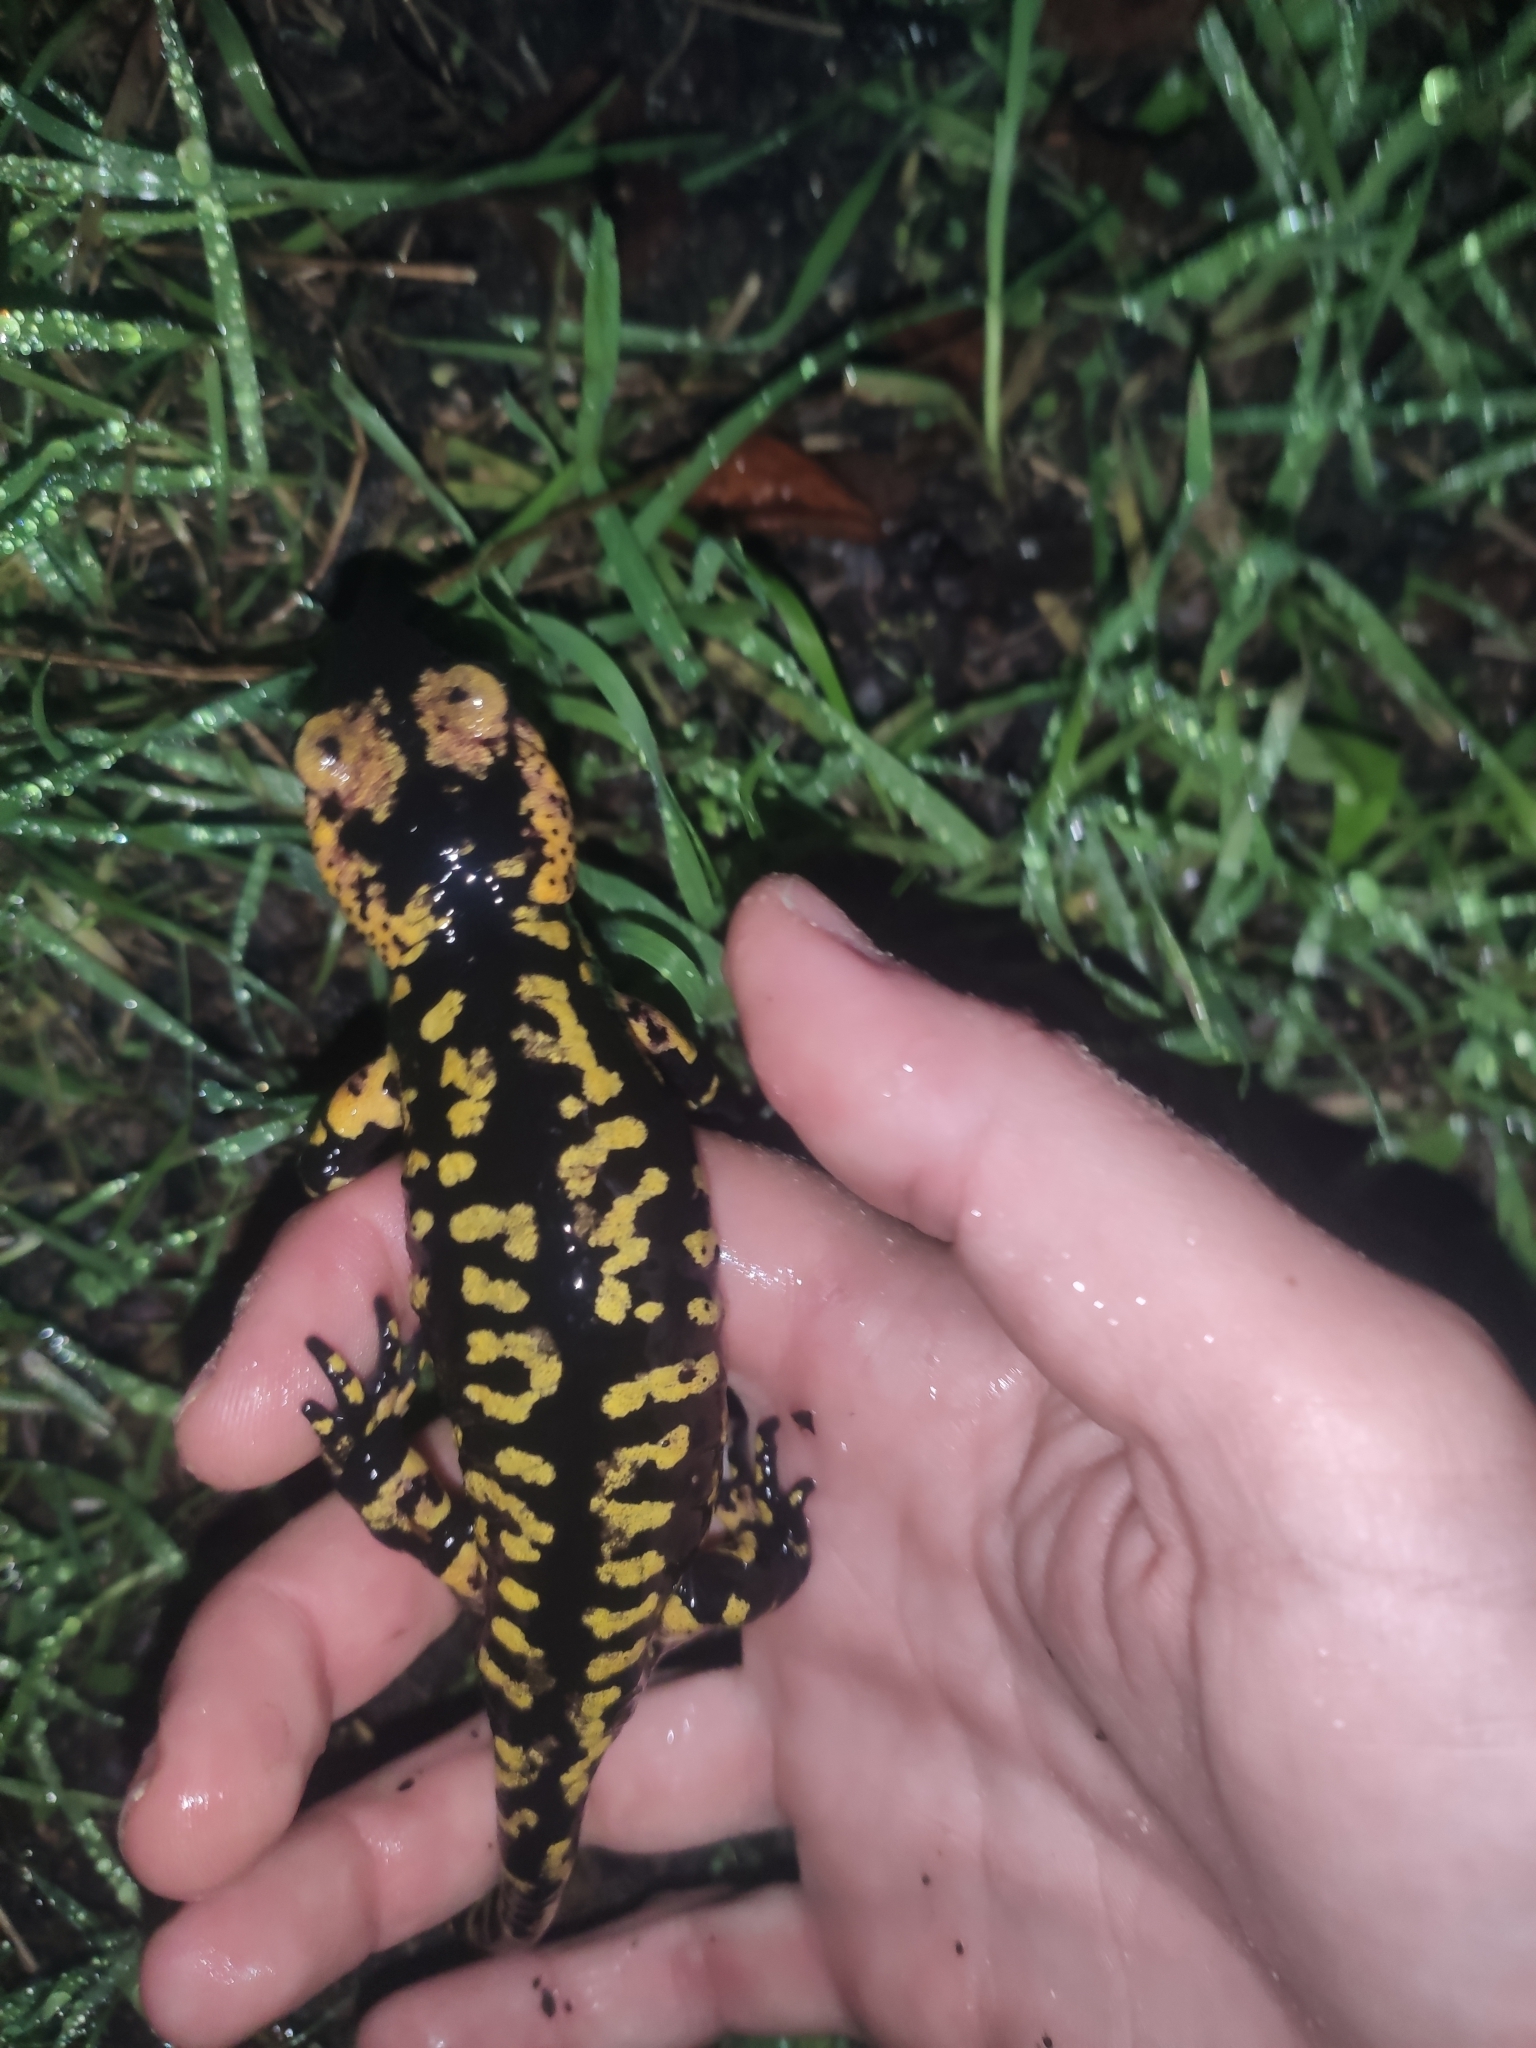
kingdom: Animalia
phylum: Chordata
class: Amphibia
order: Caudata
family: Salamandridae
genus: Salamandra
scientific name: Salamandra salamandra
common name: Fire salamander
